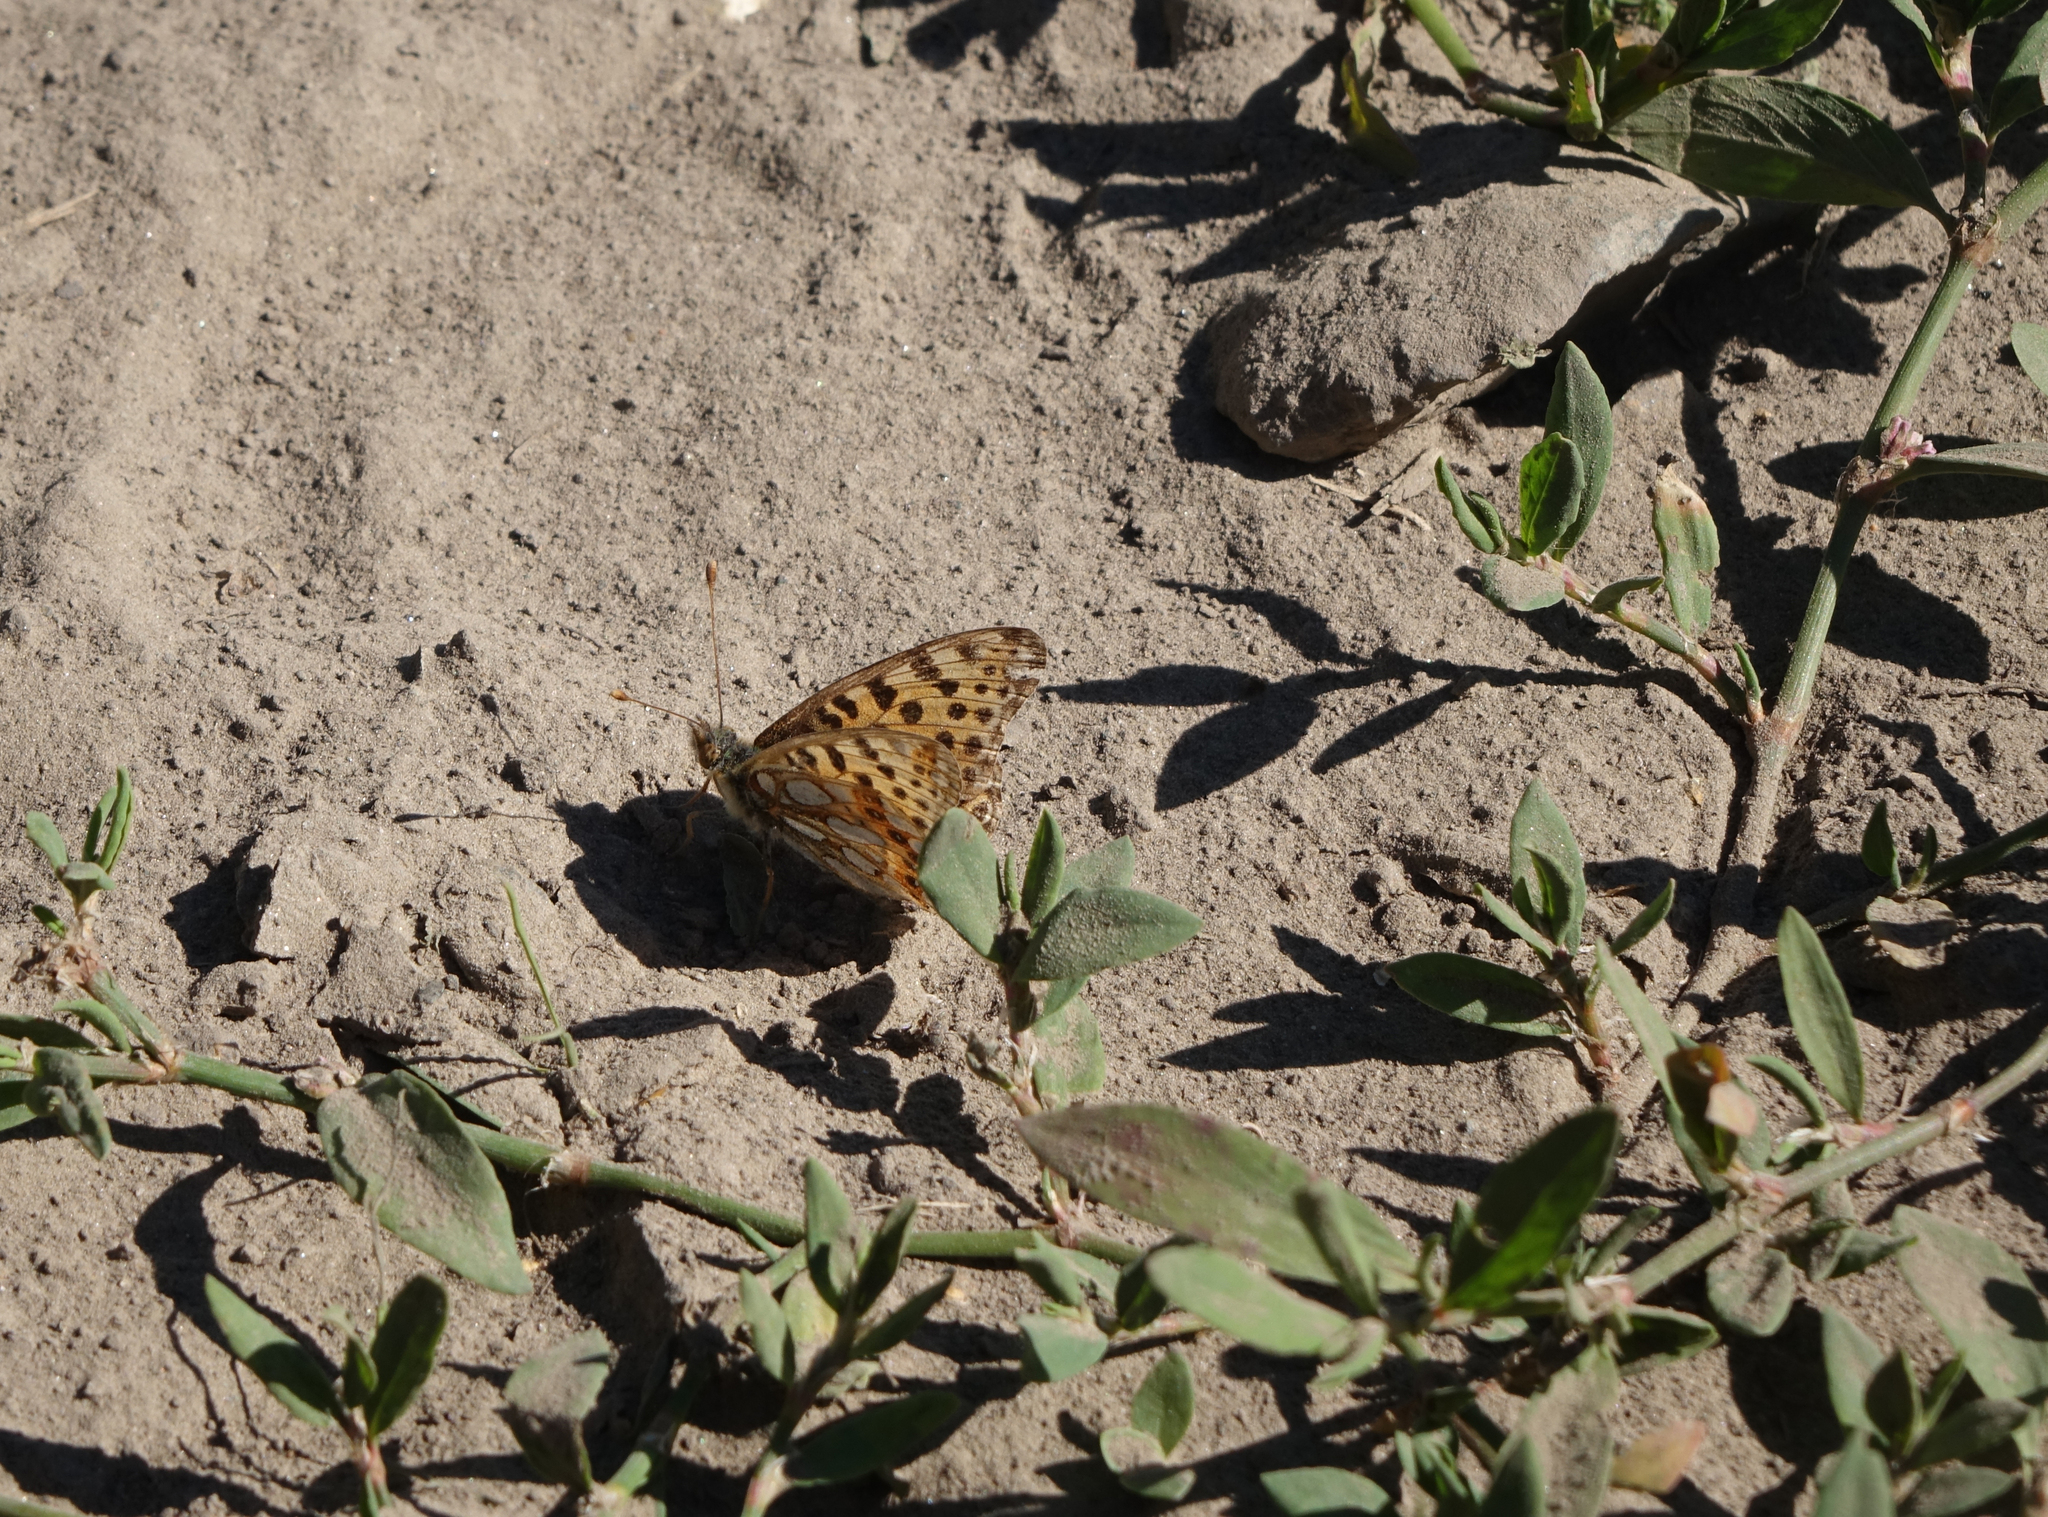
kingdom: Animalia
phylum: Arthropoda
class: Insecta
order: Lepidoptera
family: Nymphalidae
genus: Issoria
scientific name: Issoria lathonia
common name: Queen of spain fritillary
